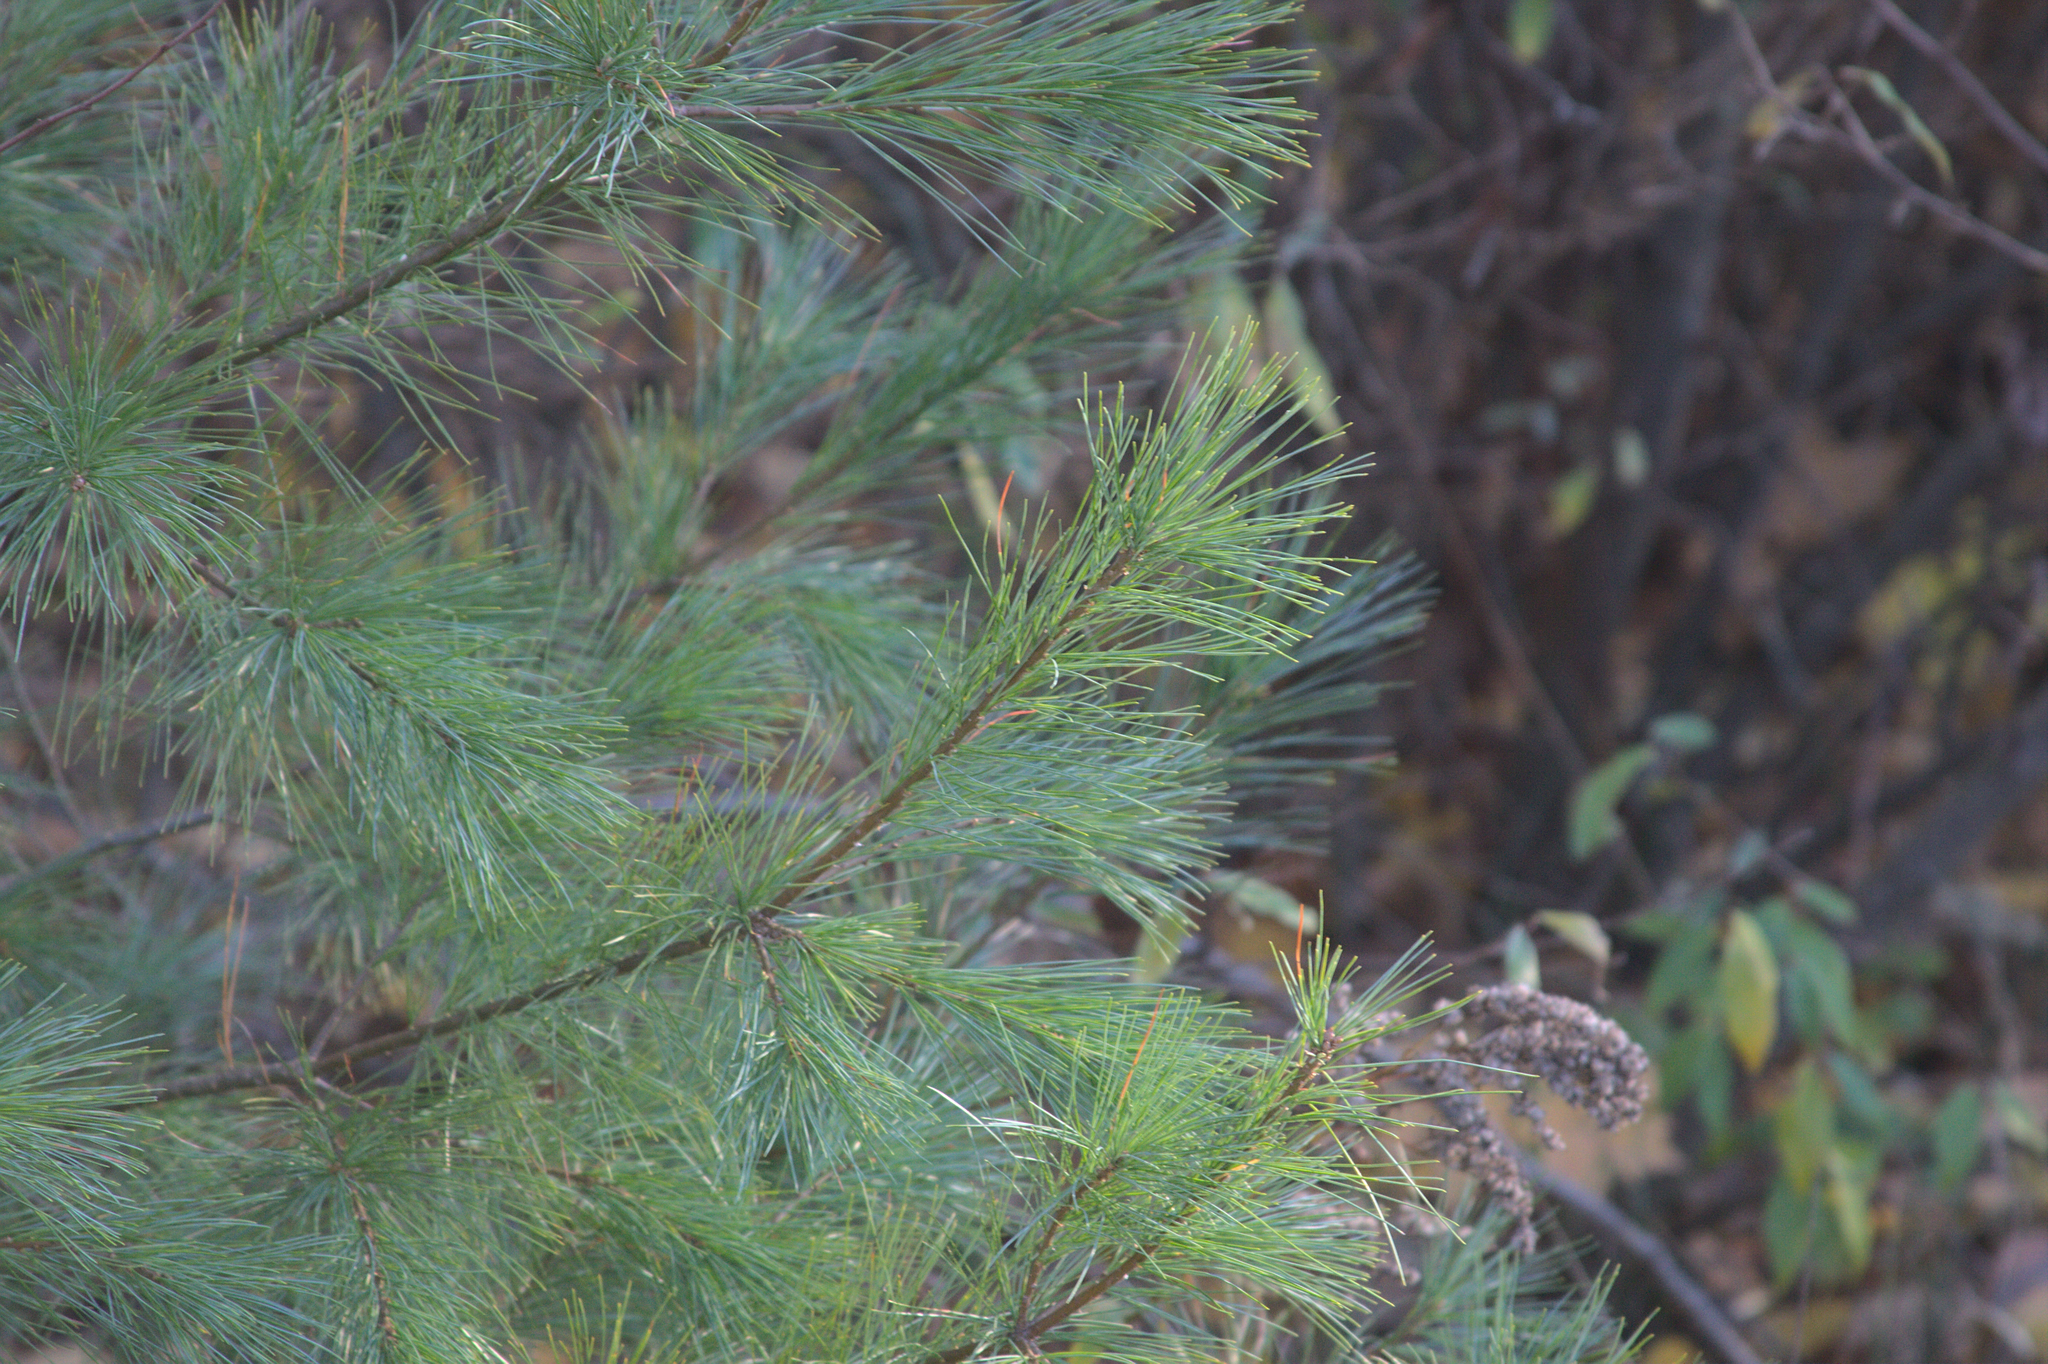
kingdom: Plantae
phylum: Tracheophyta
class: Pinopsida
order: Pinales
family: Pinaceae
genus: Pinus
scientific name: Pinus strobus
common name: Weymouth pine
